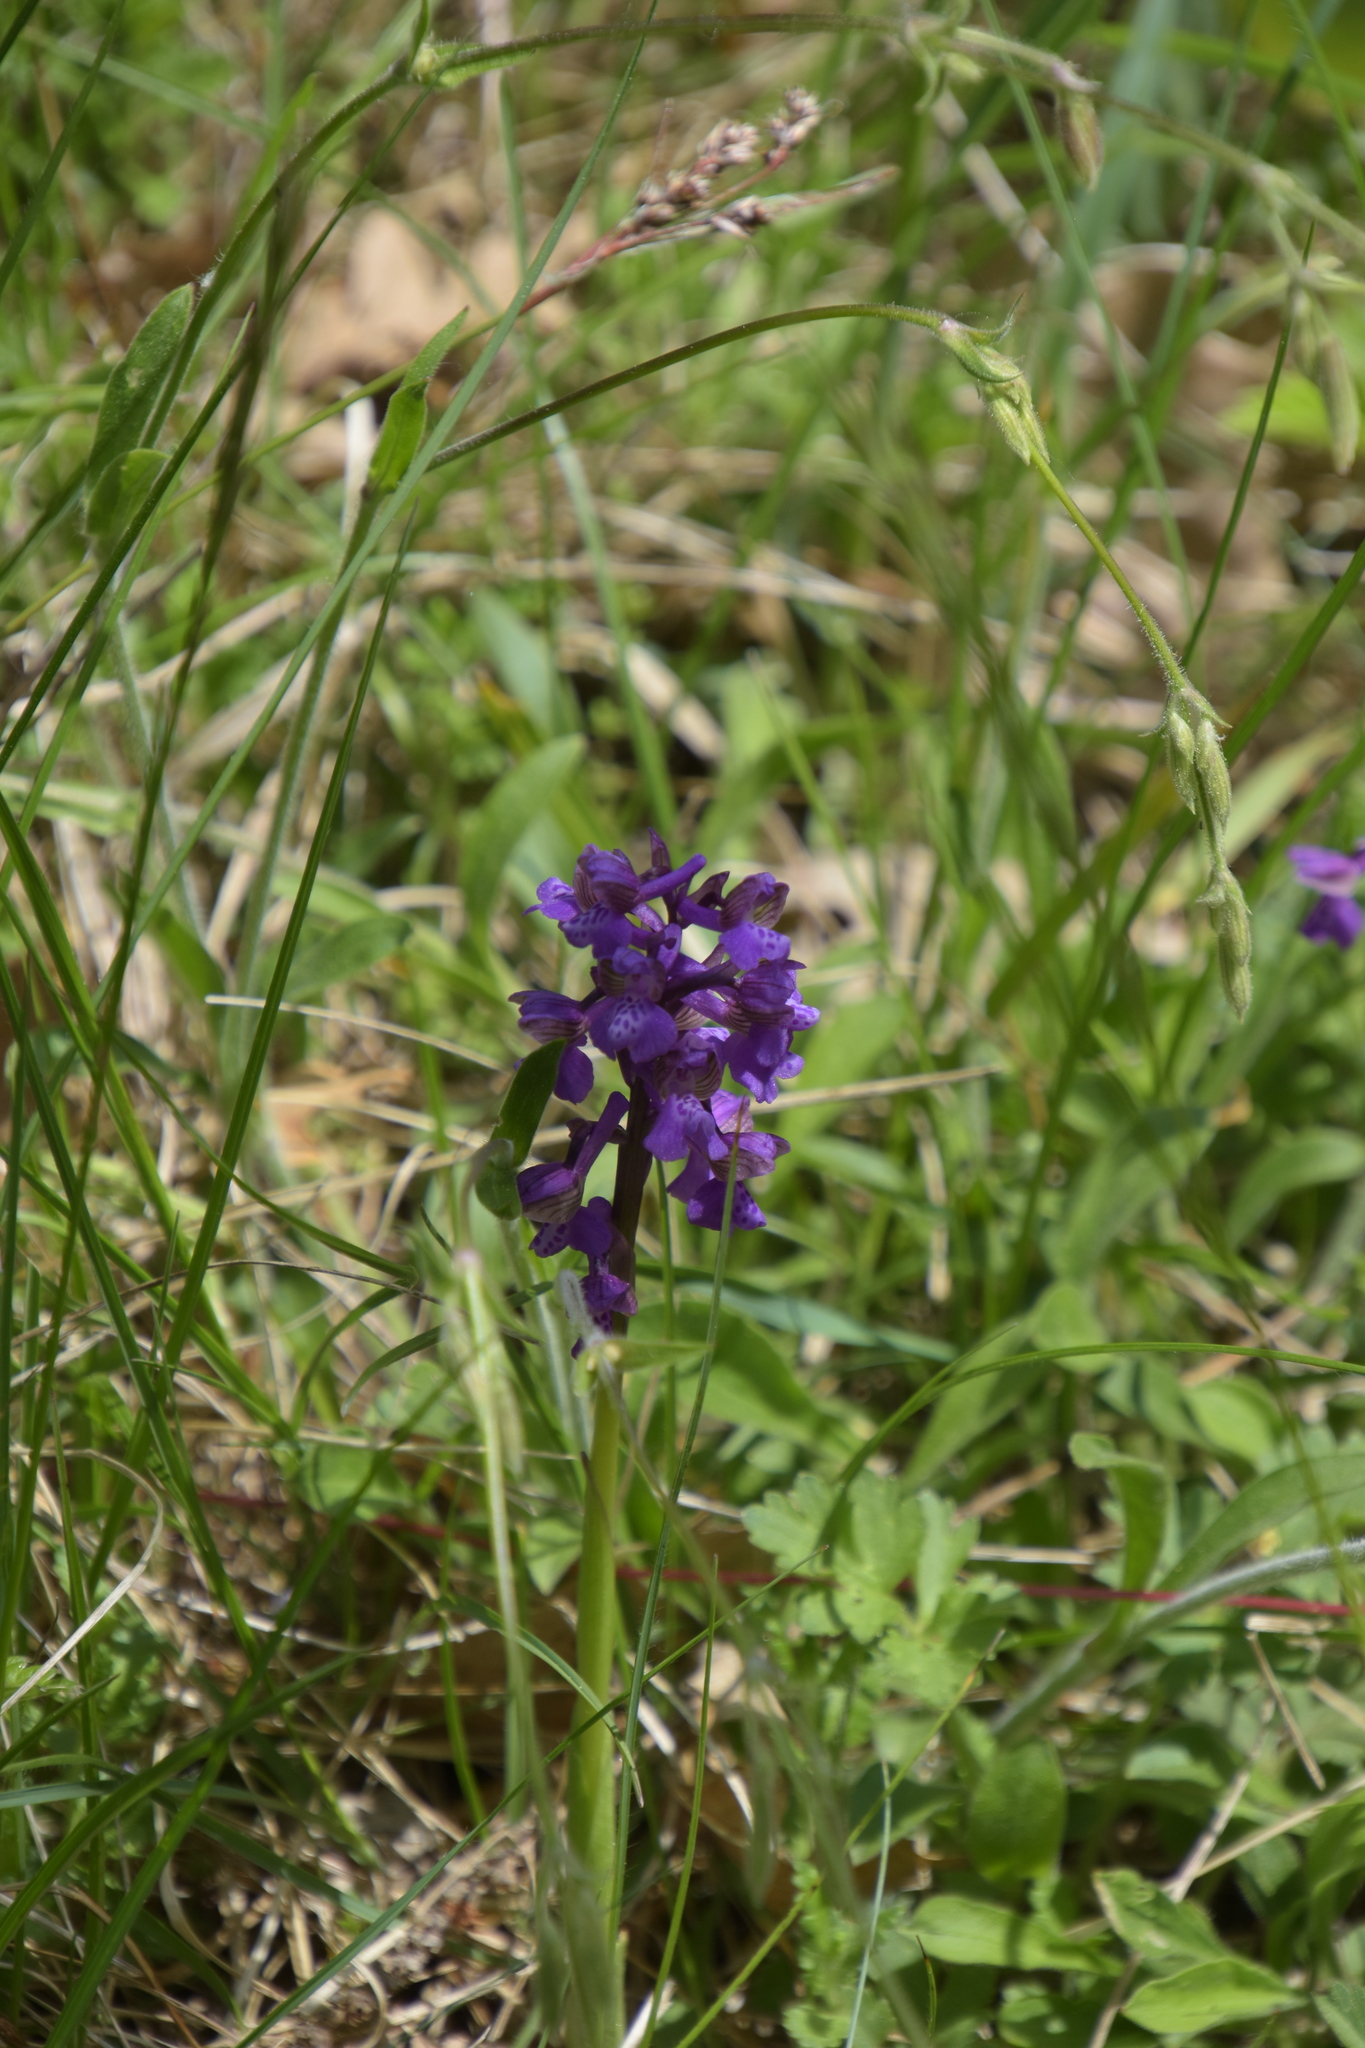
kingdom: Plantae
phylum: Tracheophyta
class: Liliopsida
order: Asparagales
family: Orchidaceae
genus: Anacamptis
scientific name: Anacamptis morio
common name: Green-winged orchid
